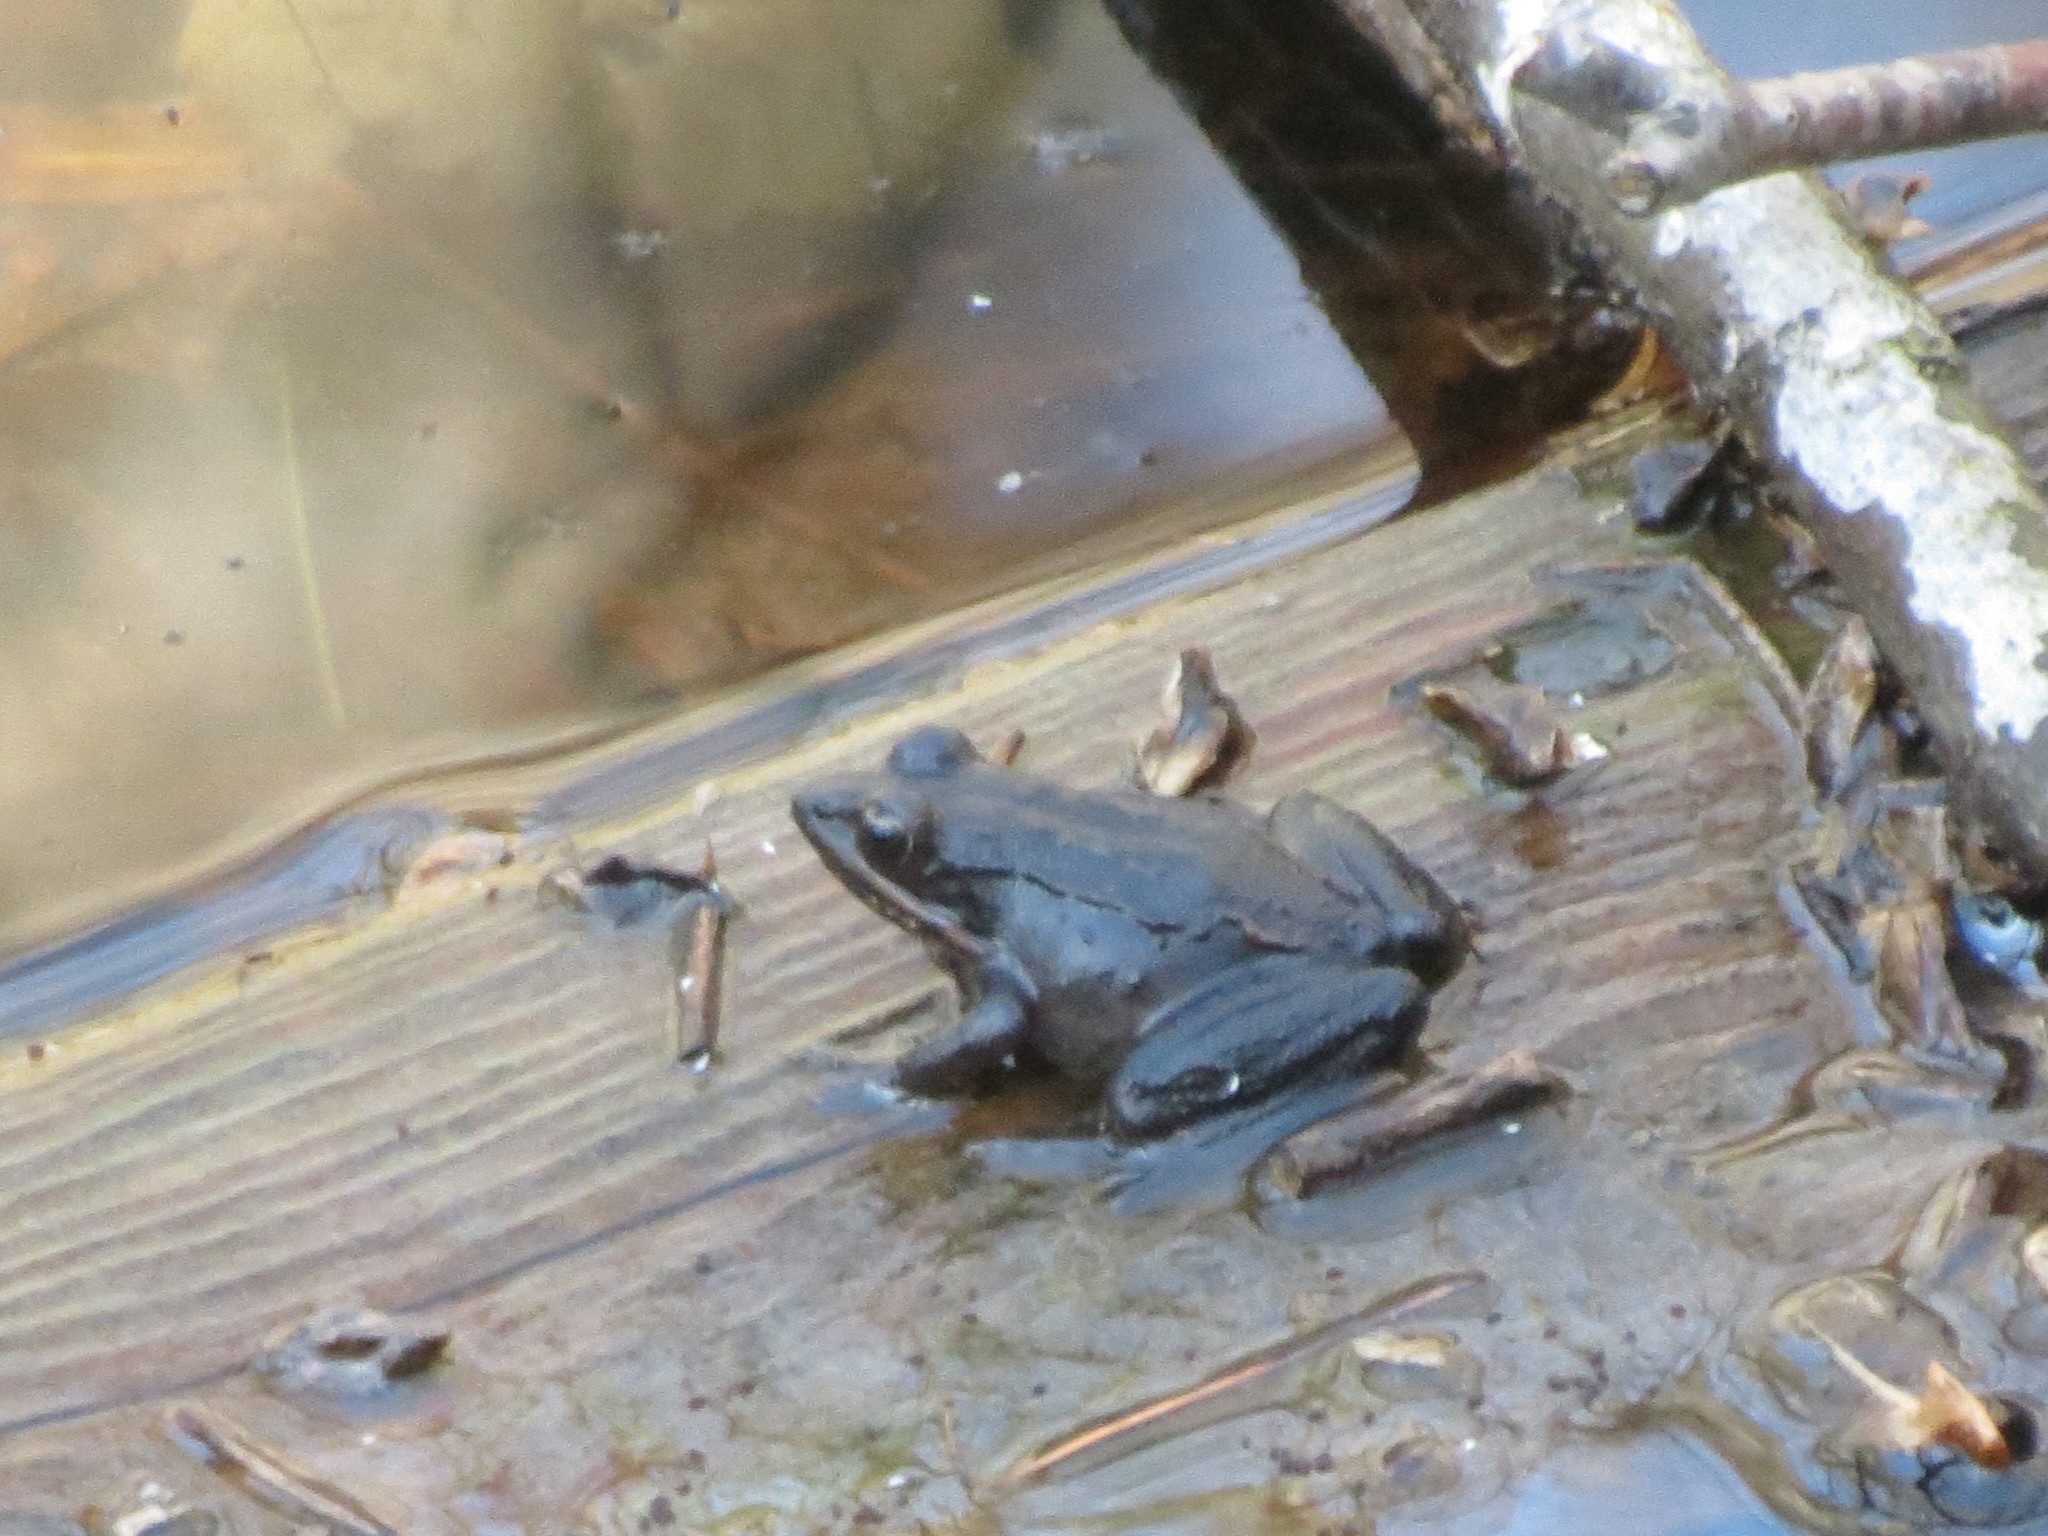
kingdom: Animalia
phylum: Chordata
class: Amphibia
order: Anura
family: Ranidae
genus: Lithobates
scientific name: Lithobates sylvaticus
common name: Wood frog
